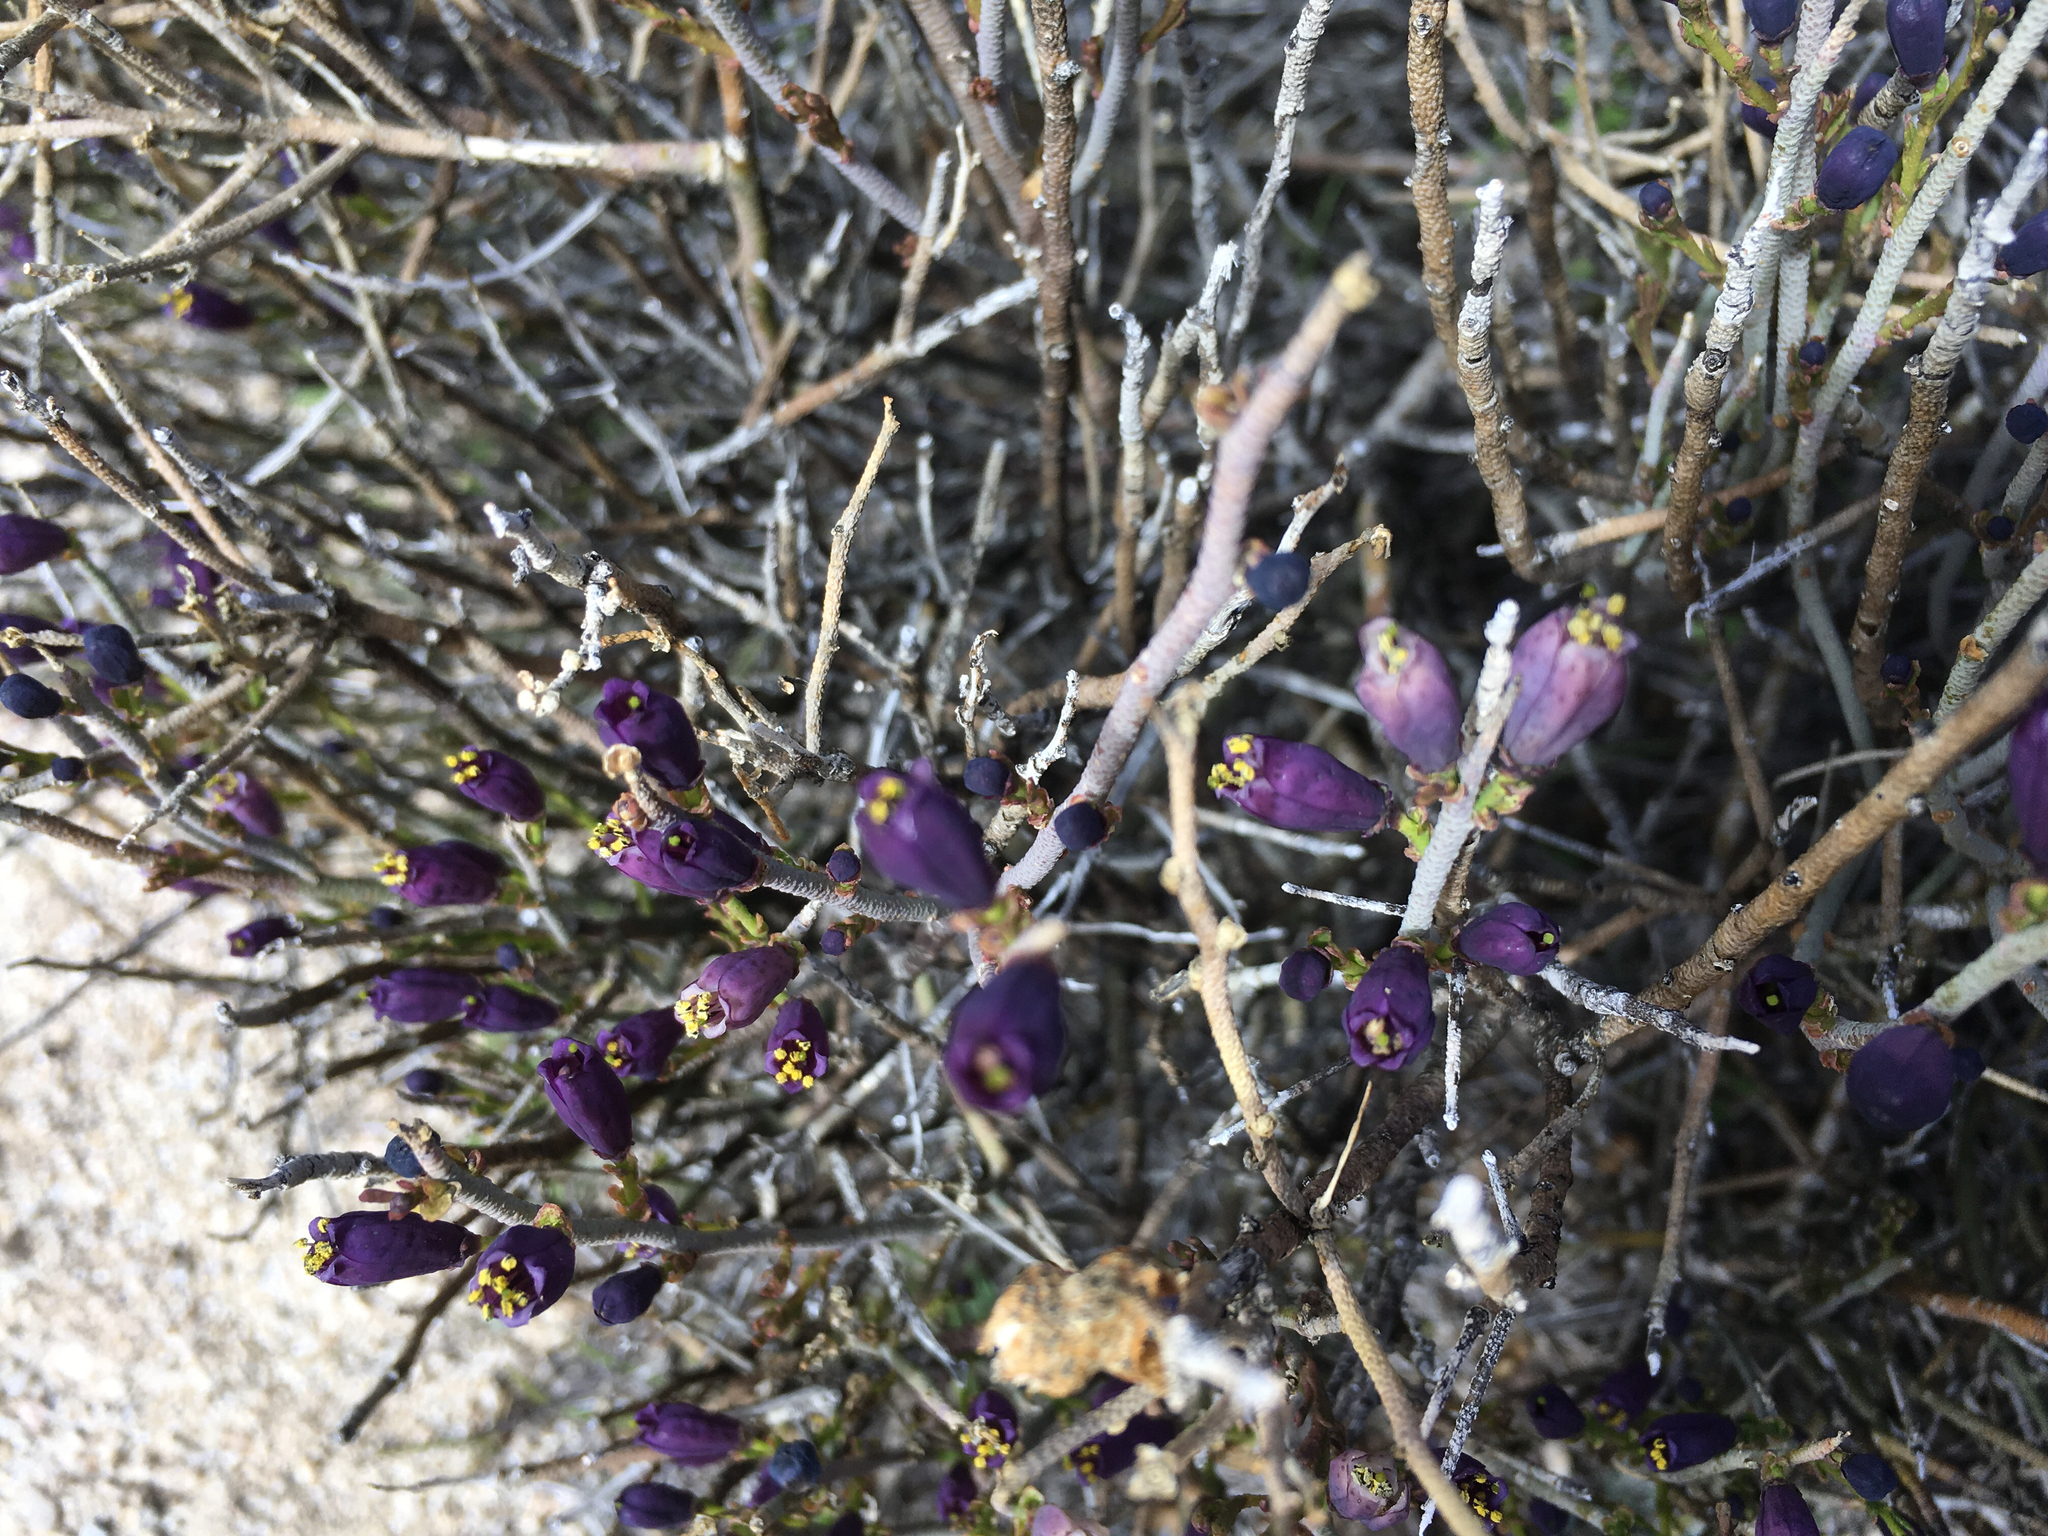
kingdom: Plantae
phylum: Tracheophyta
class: Magnoliopsida
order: Sapindales
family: Rutaceae
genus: Thamnosma
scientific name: Thamnosma montana
